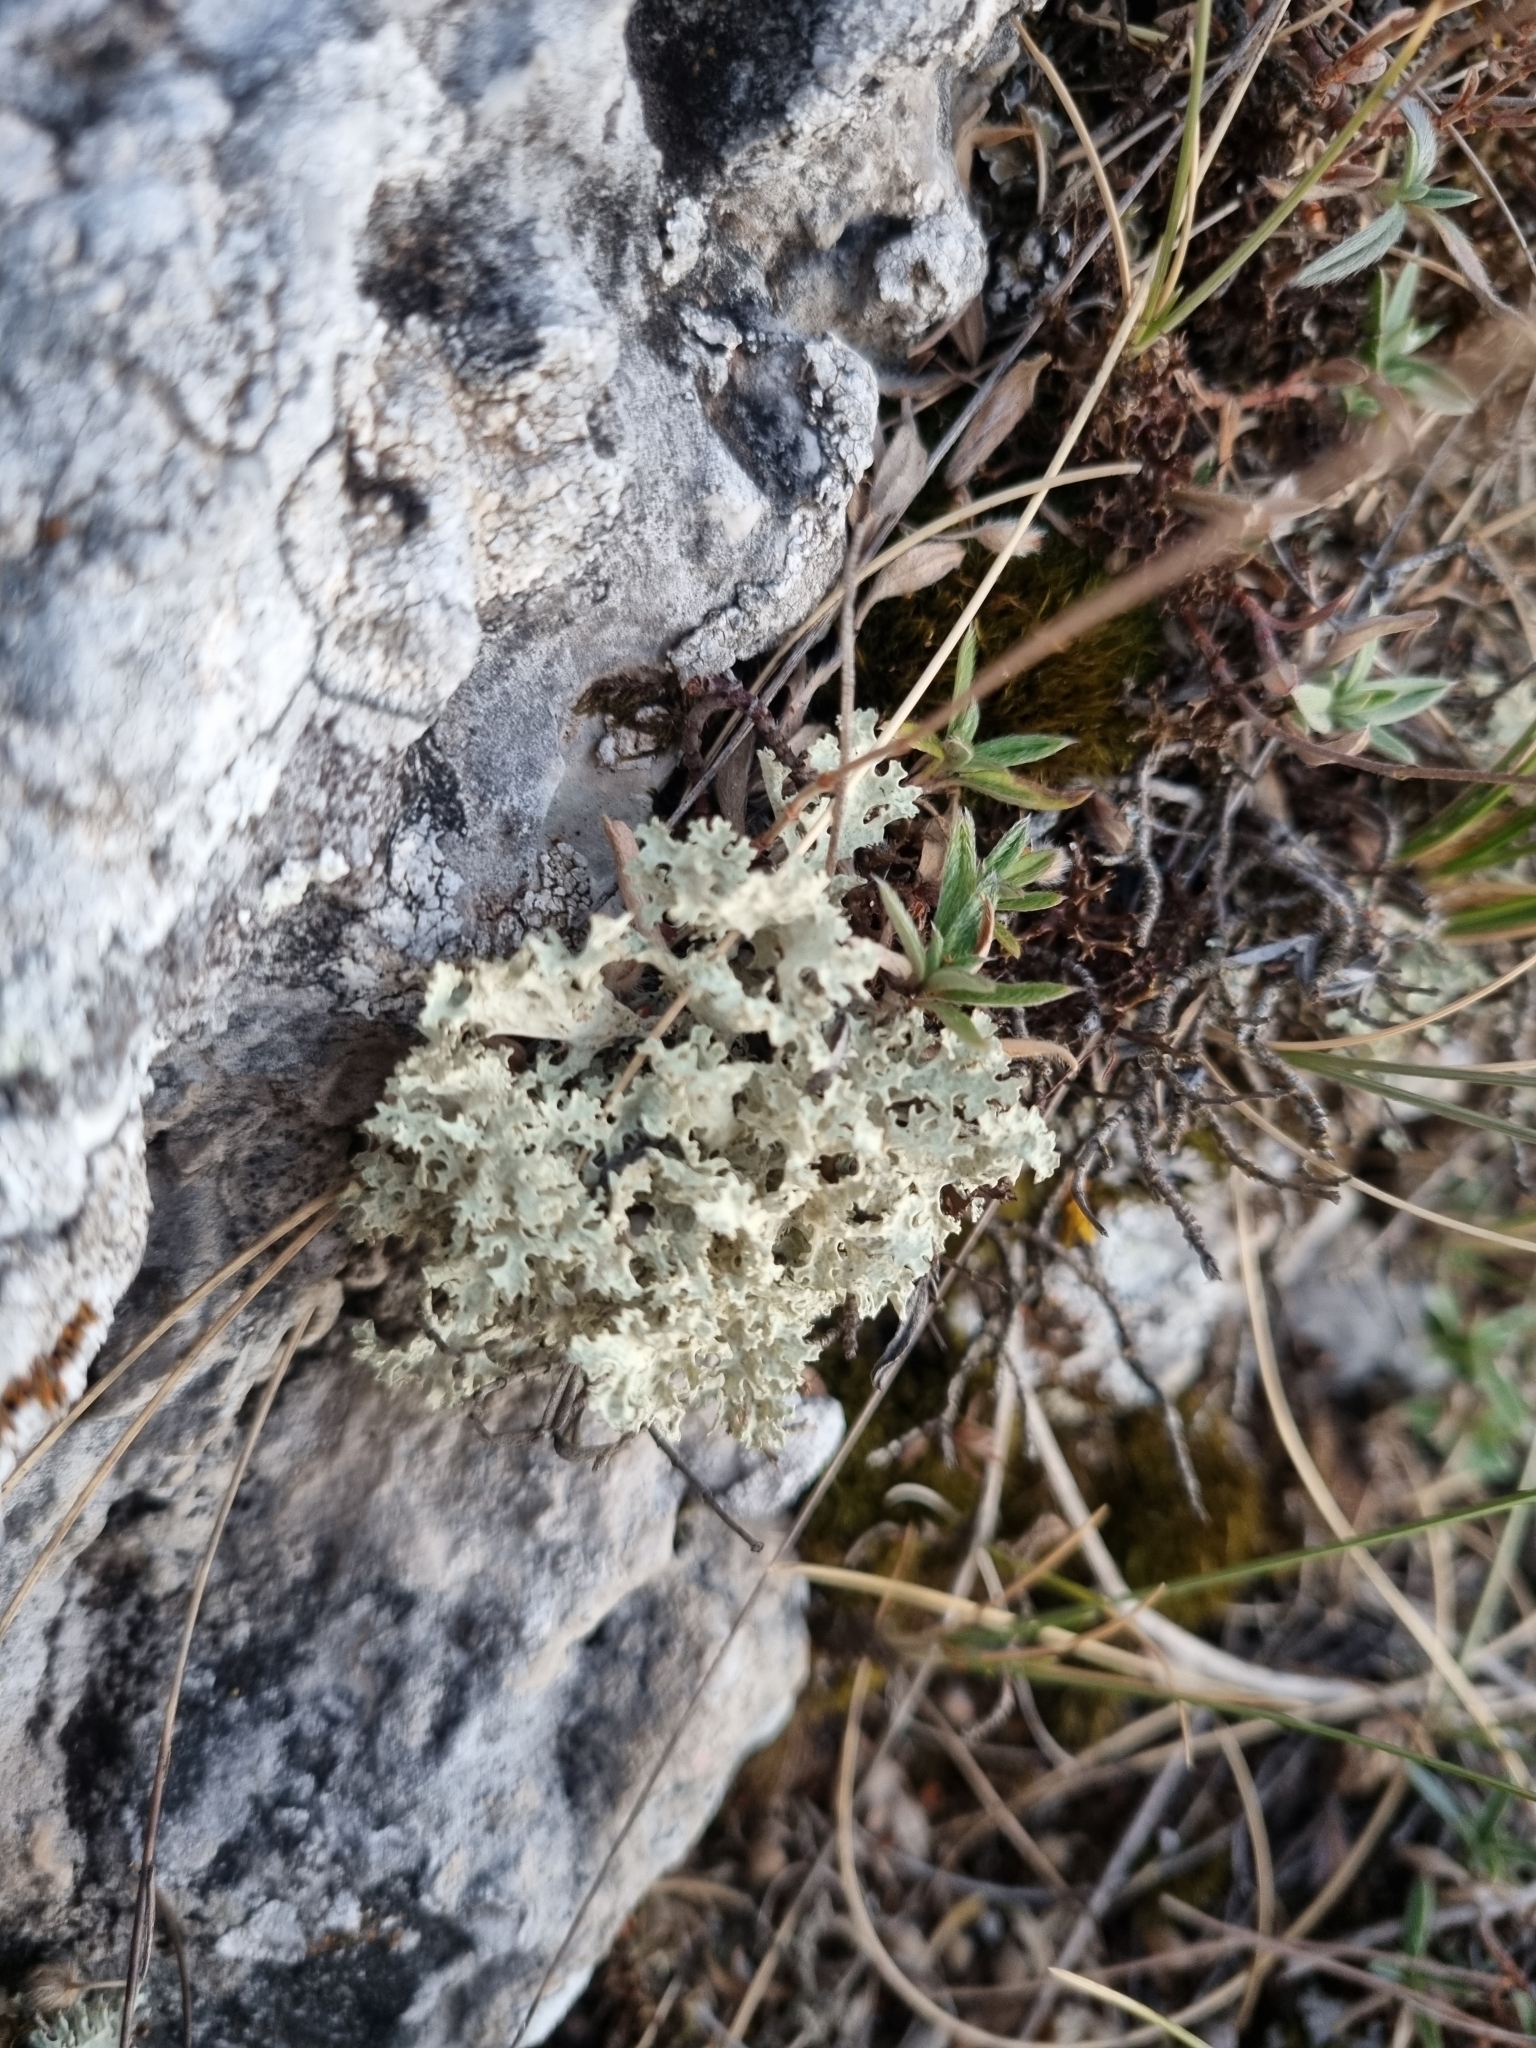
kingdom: Fungi
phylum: Ascomycota
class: Lecanoromycetes
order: Lecanorales
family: Parmeliaceae
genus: Nephromopsis
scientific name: Nephromopsis nivalis
